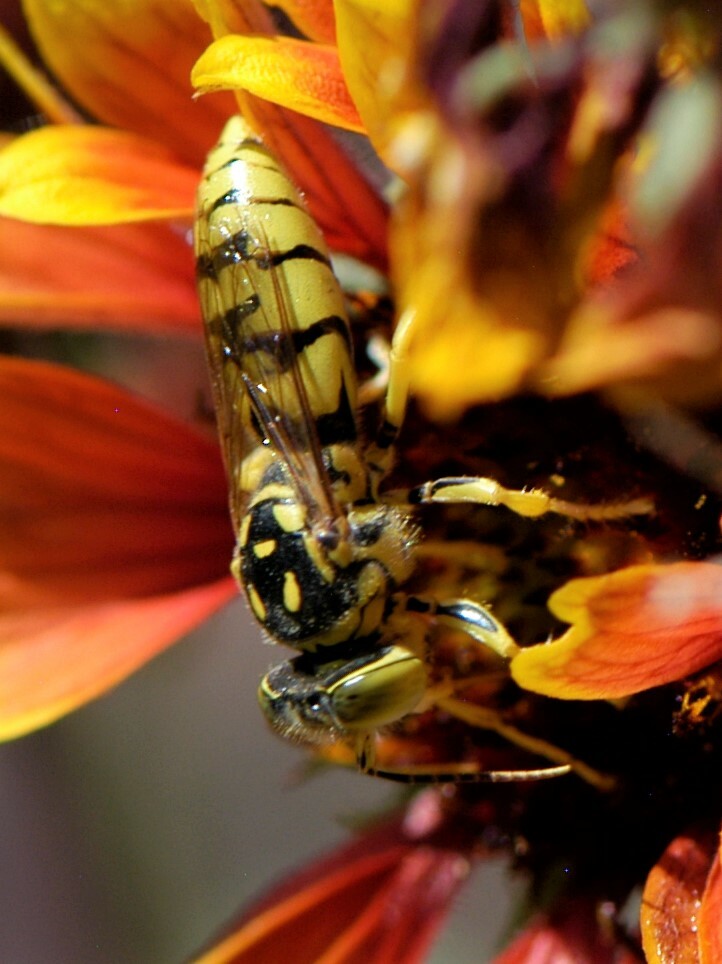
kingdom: Animalia
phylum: Arthropoda
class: Insecta
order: Hymenoptera
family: Crabronidae
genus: Steniolia
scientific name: Steniolia
